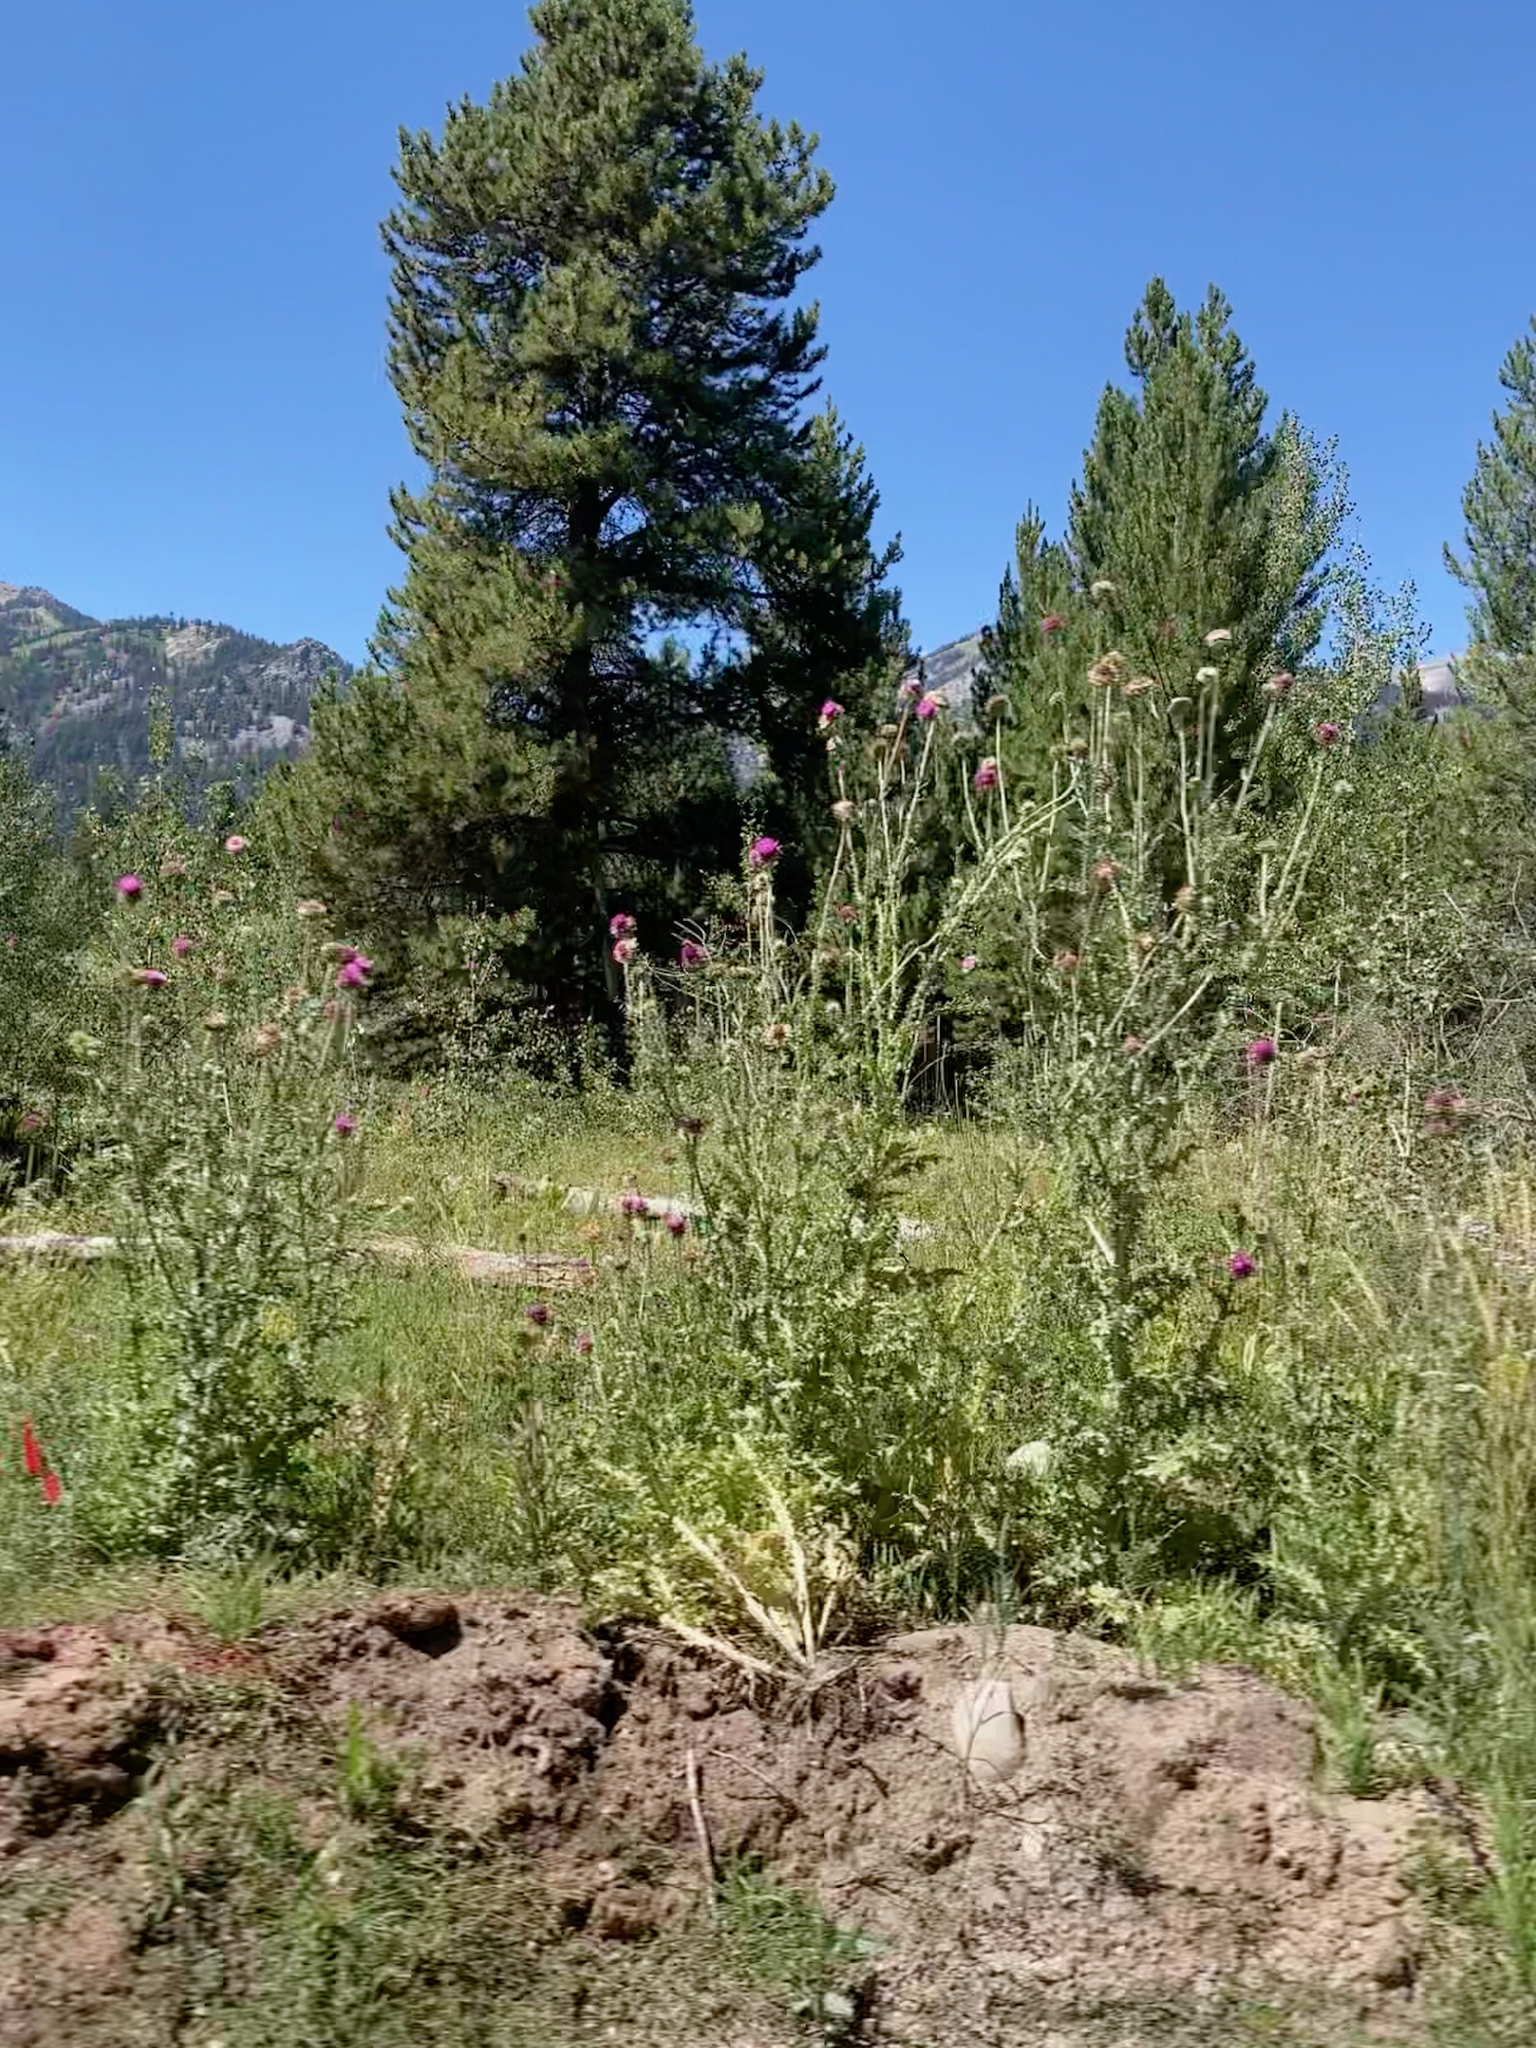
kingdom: Plantae
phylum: Tracheophyta
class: Magnoliopsida
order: Asterales
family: Asteraceae
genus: Carduus
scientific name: Carduus nutans
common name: Musk thistle
